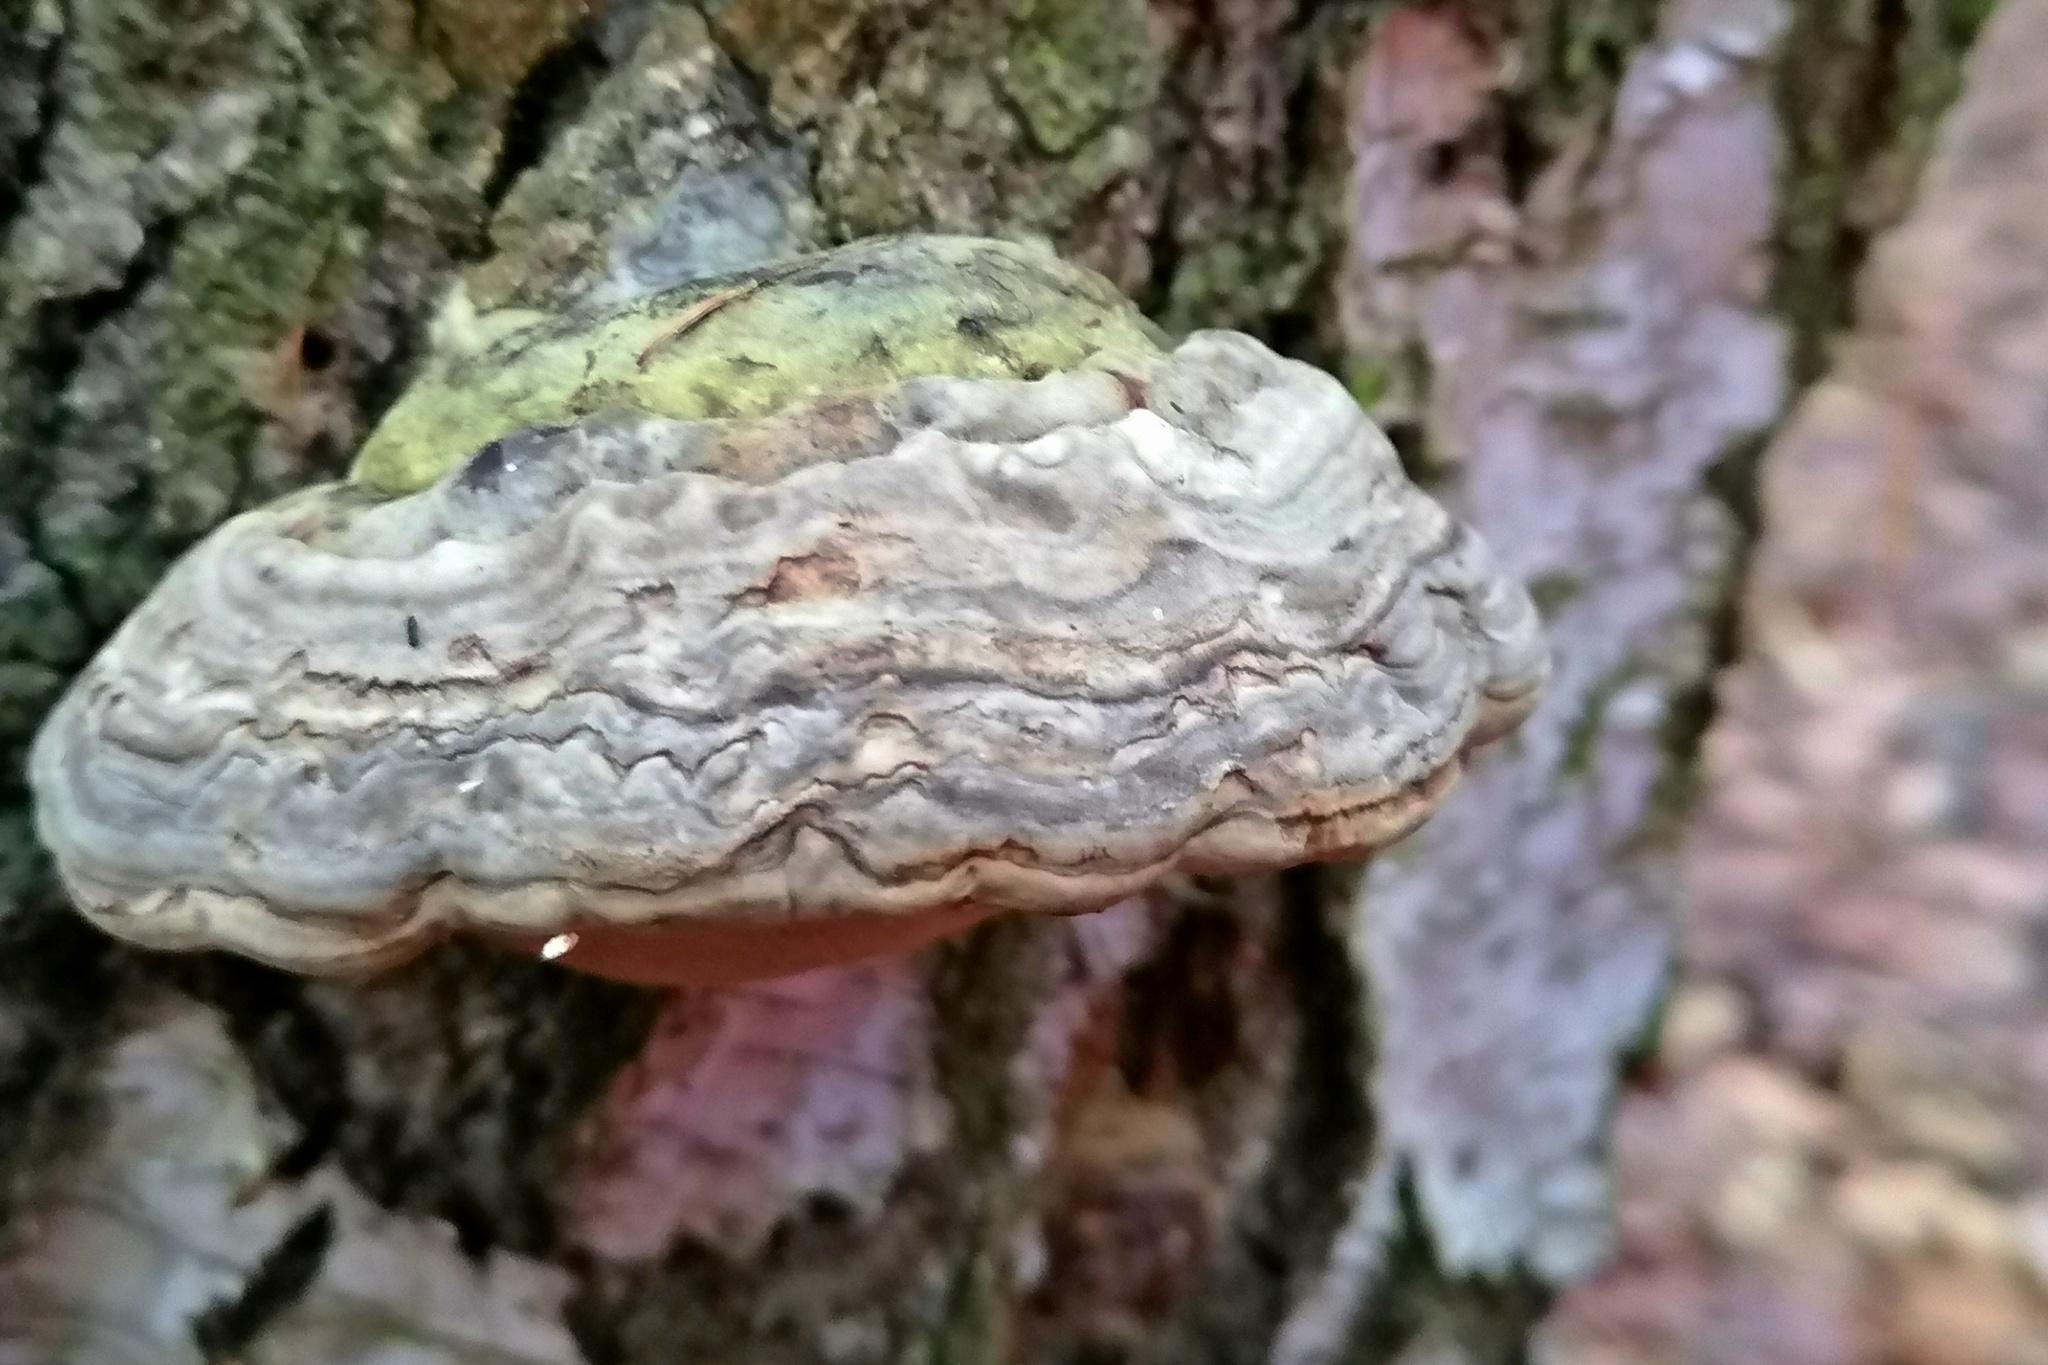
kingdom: Fungi
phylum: Basidiomycota
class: Agaricomycetes
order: Polyporales
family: Polyporaceae
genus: Fomes
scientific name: Fomes fomentarius
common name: Hoof fungus
